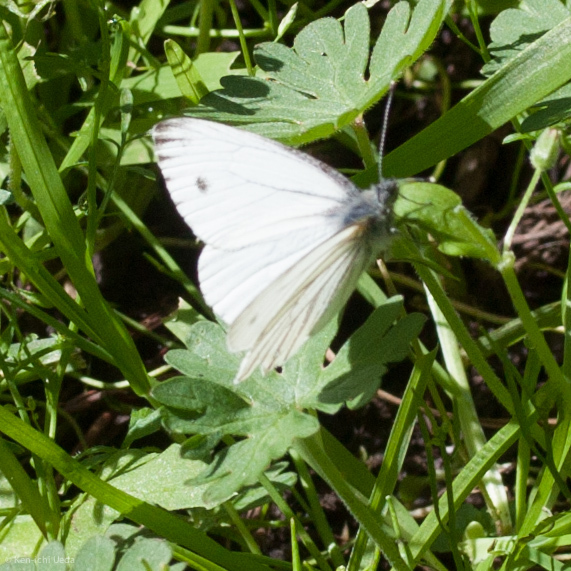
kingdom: Animalia
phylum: Arthropoda
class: Insecta
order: Lepidoptera
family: Pieridae
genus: Pieris
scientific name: Pieris marginalis
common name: Margined white
